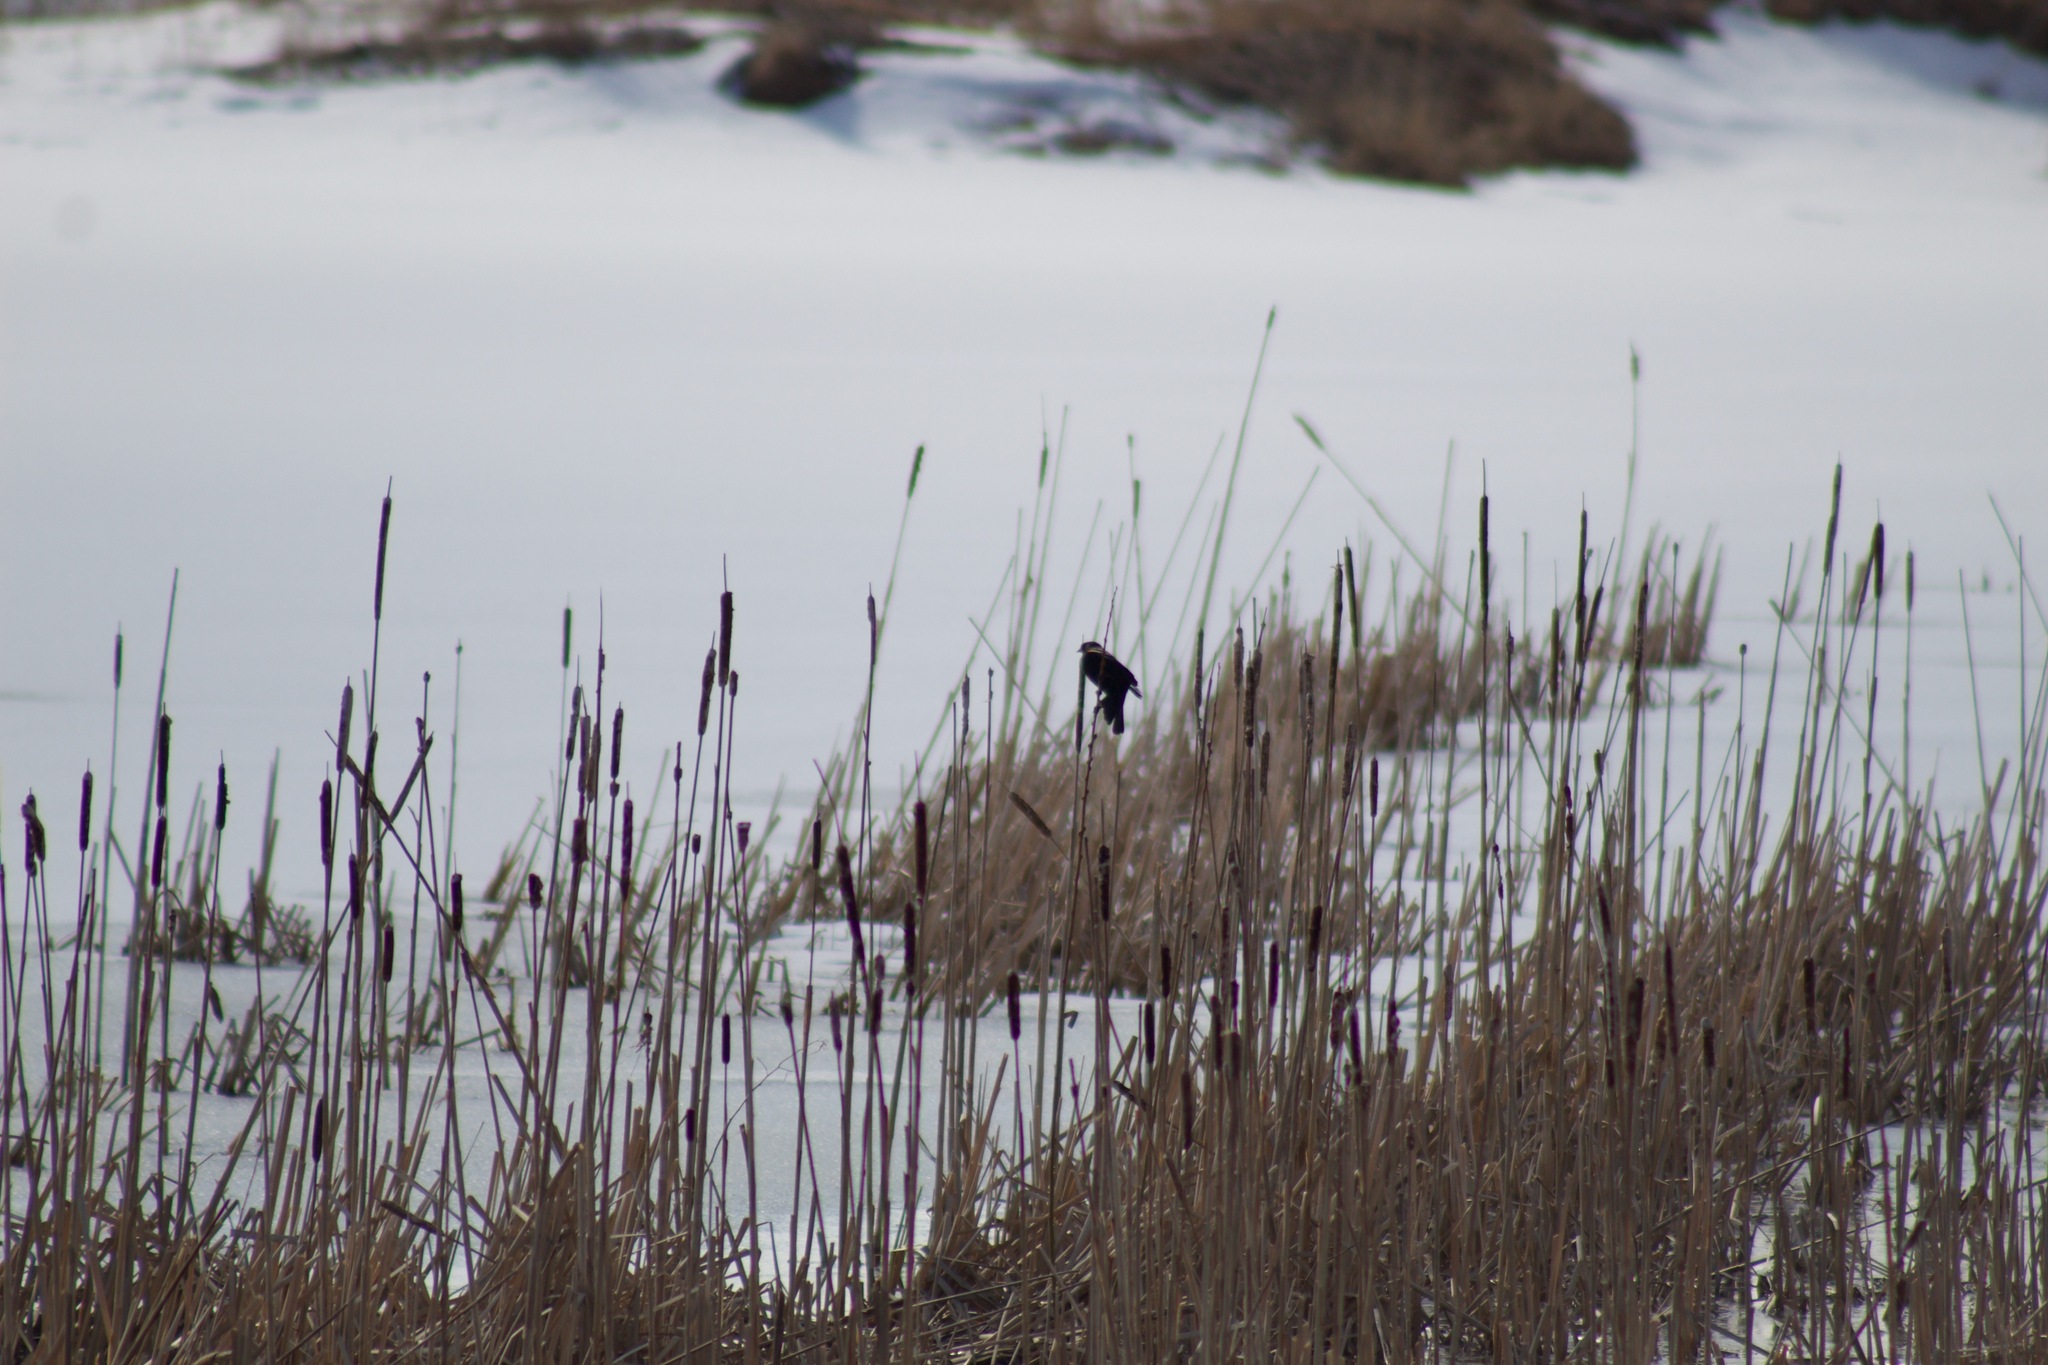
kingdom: Animalia
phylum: Chordata
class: Aves
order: Passeriformes
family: Icteridae
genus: Agelaius
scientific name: Agelaius phoeniceus
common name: Red-winged blackbird
